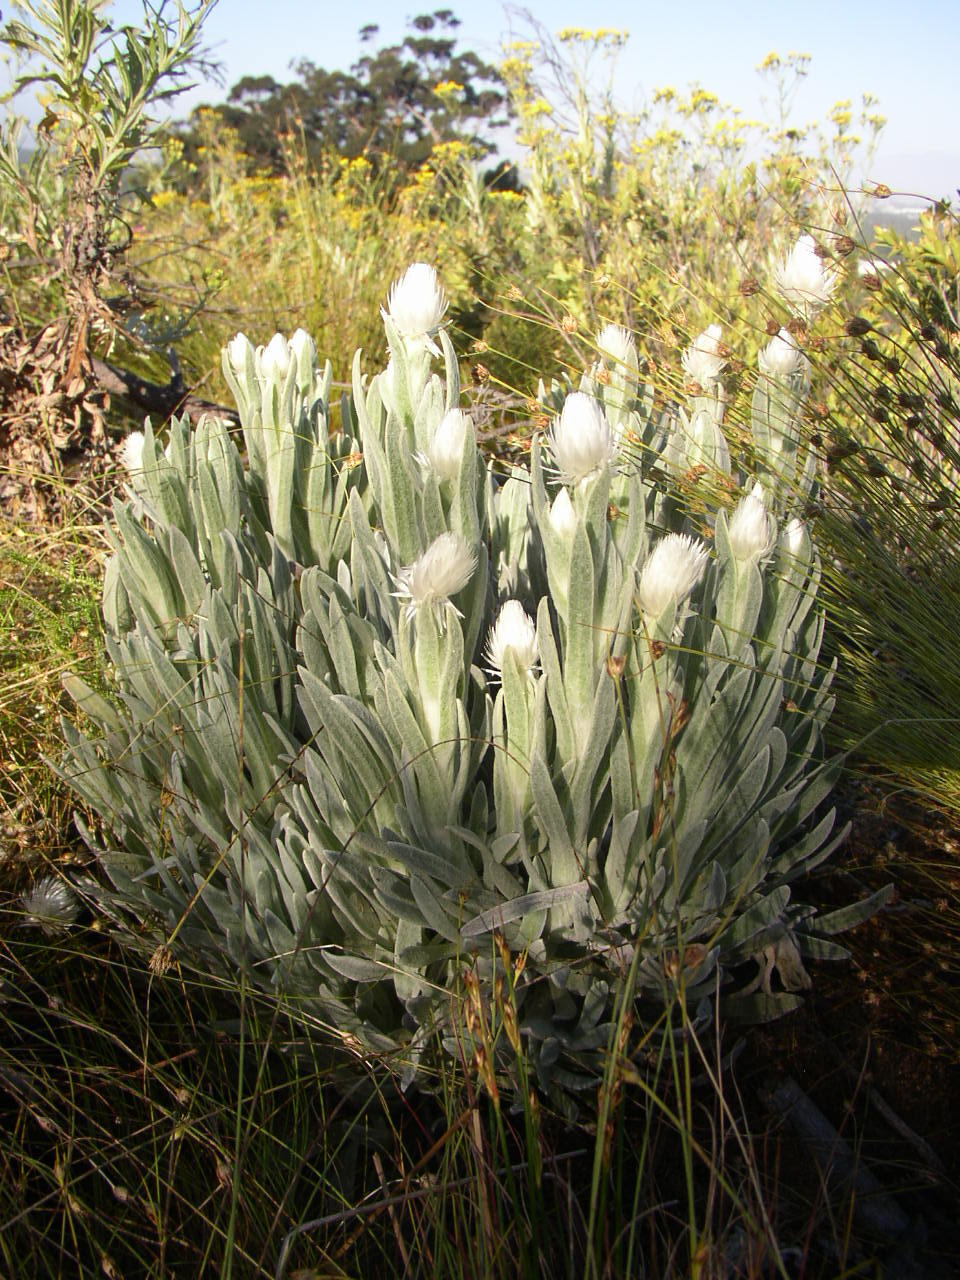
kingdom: Plantae
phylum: Tracheophyta
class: Magnoliopsida
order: Asterales
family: Asteraceae
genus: Syncarpha
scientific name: Syncarpha vestita
